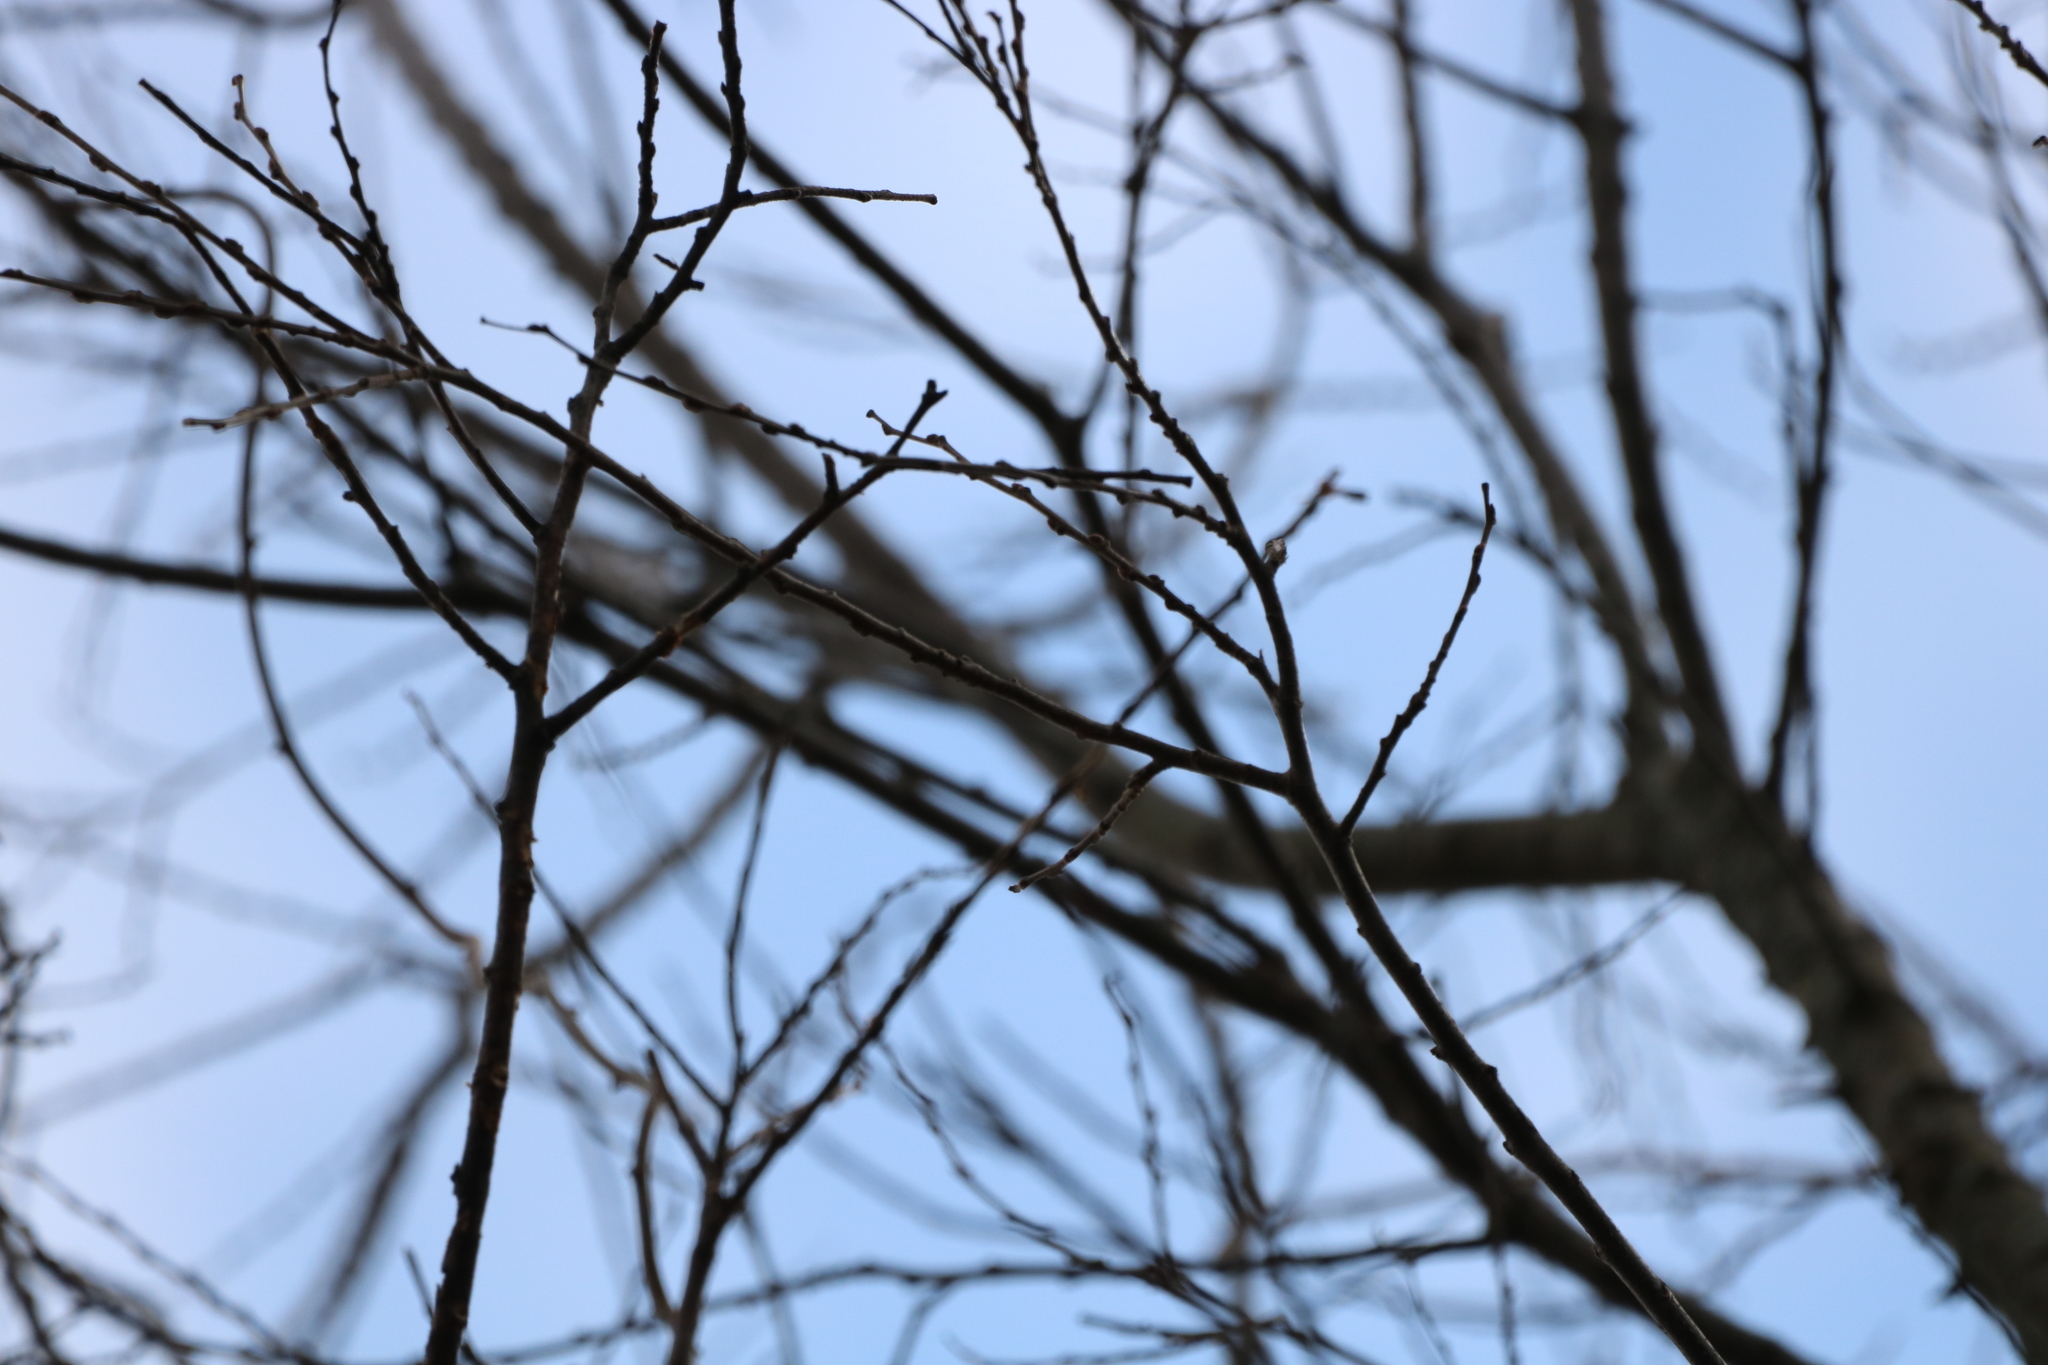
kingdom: Plantae
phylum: Tracheophyta
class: Magnoliopsida
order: Rosales
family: Cannabaceae
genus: Celtis
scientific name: Celtis occidentalis
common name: Common hackberry
